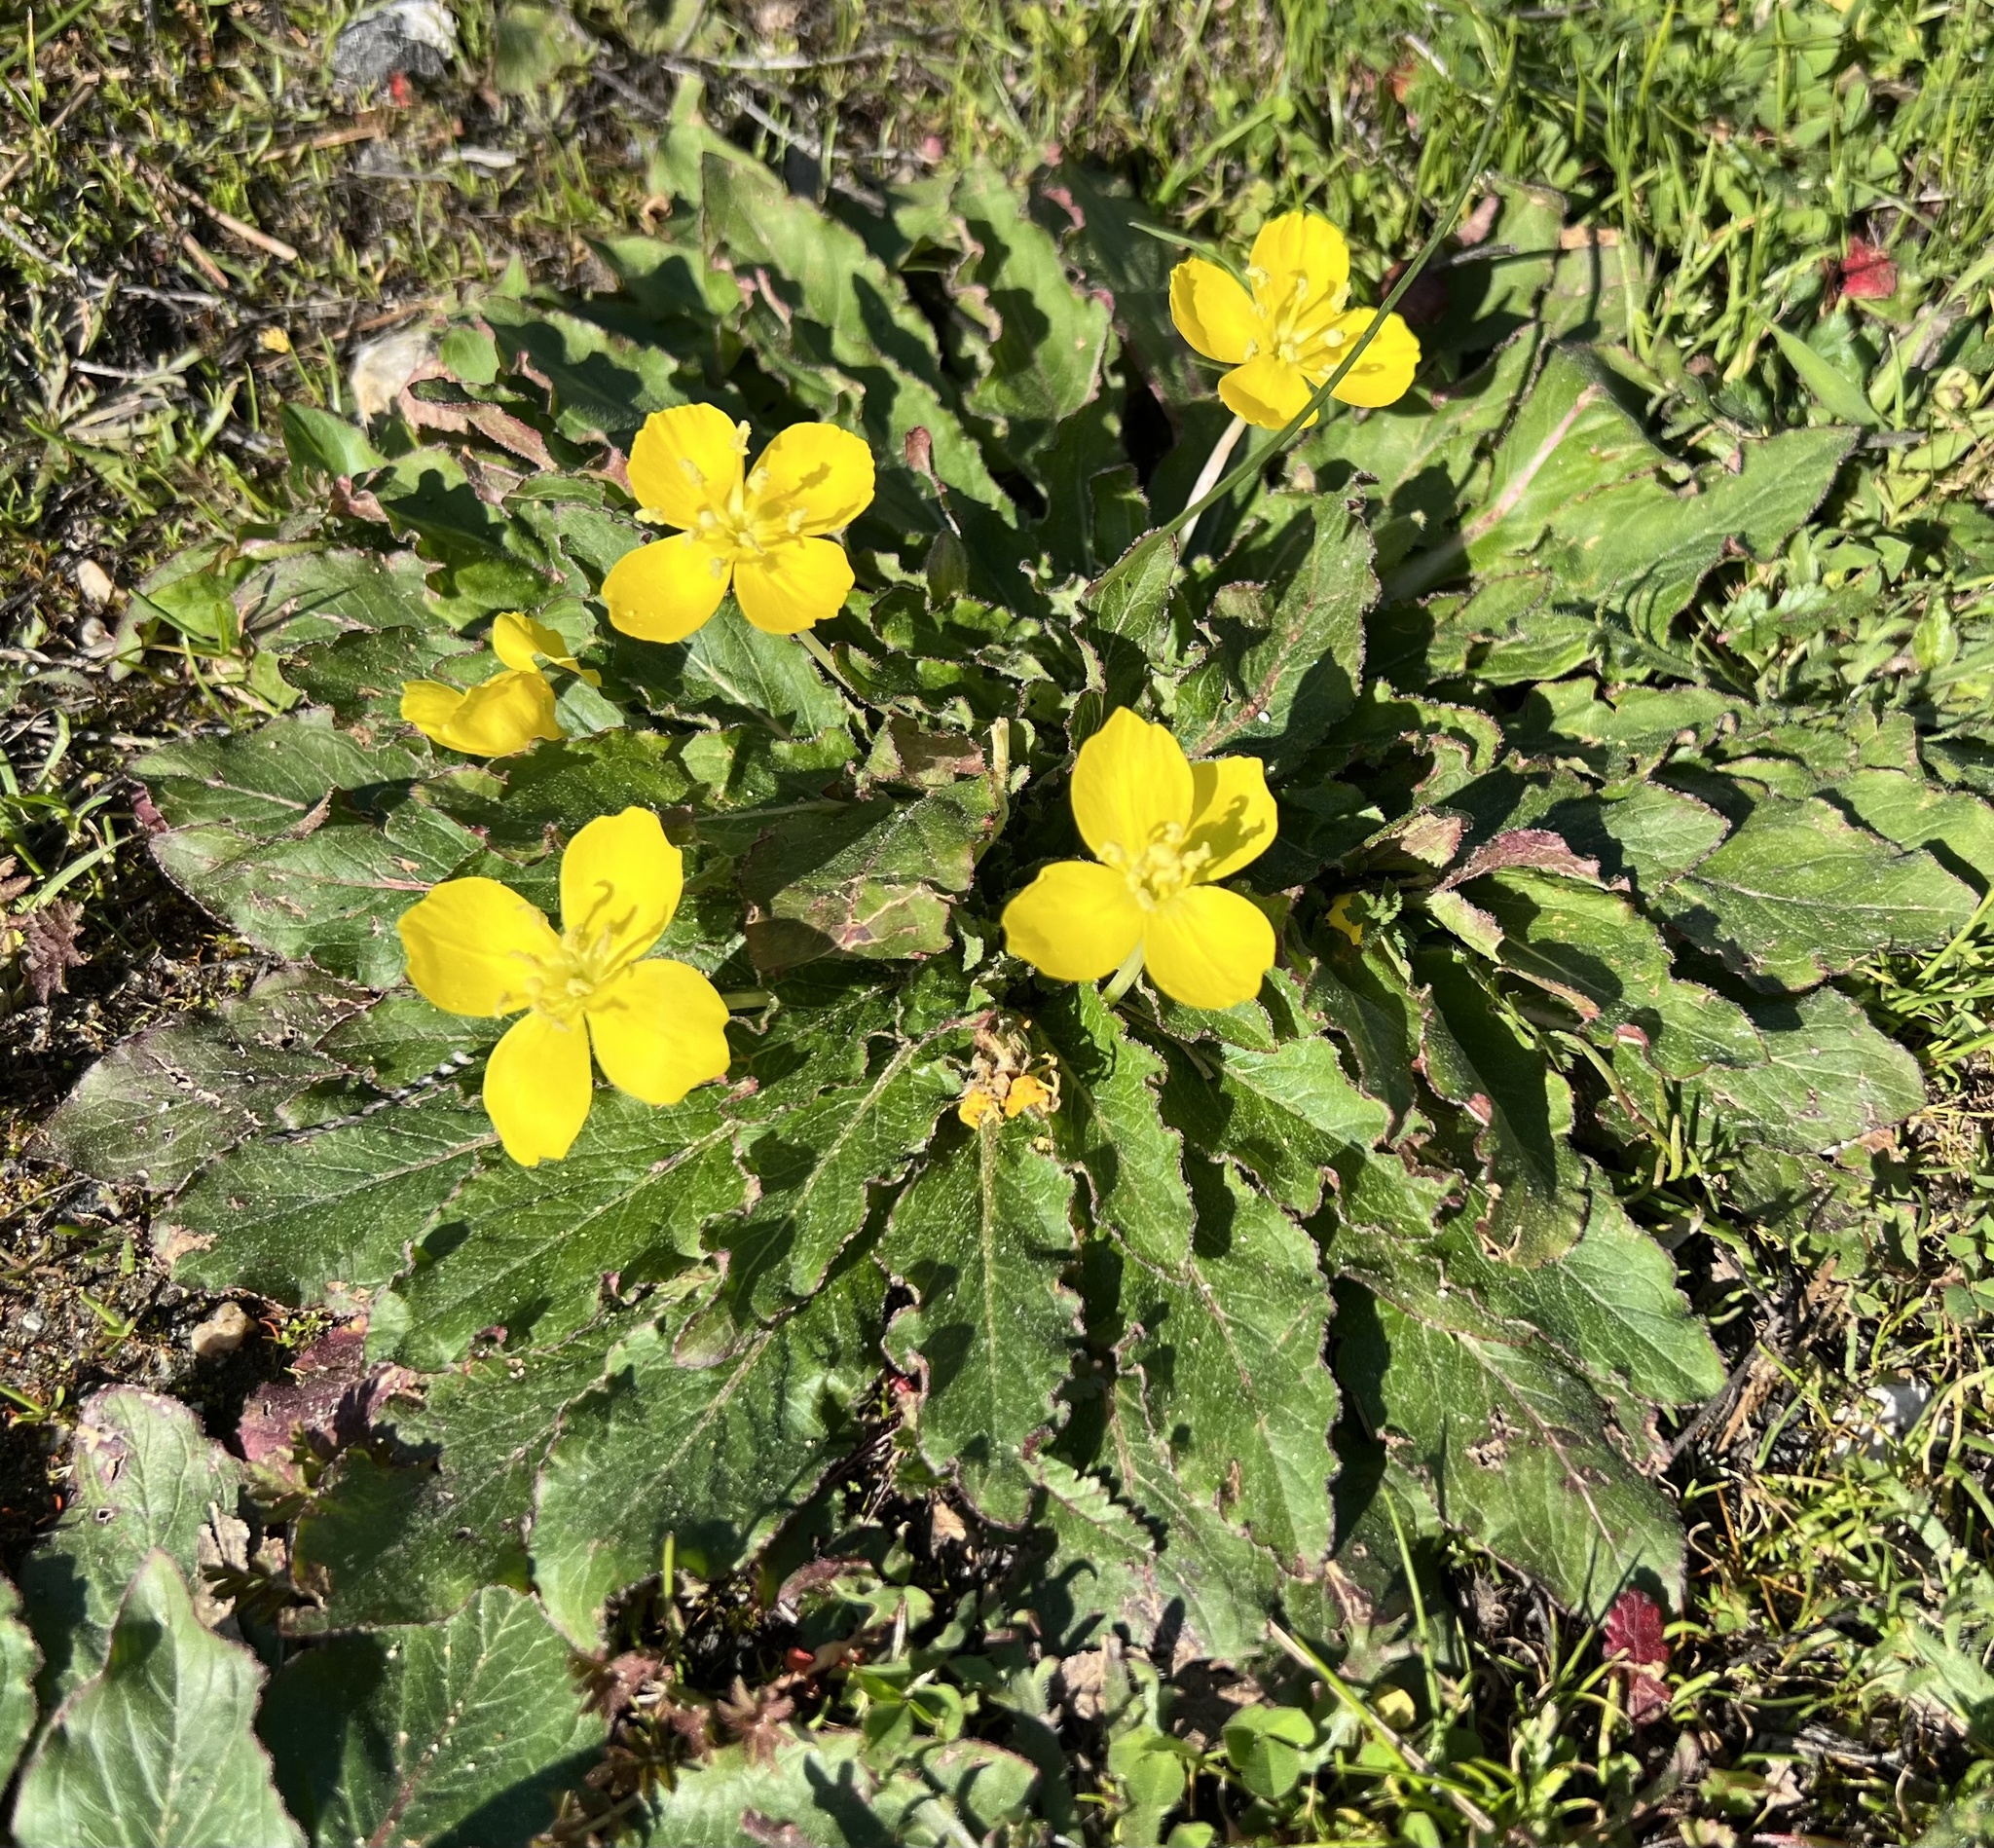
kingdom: Plantae
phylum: Tracheophyta
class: Magnoliopsida
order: Myrtales
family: Onagraceae
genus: Taraxia
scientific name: Taraxia ovata
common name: Goldeneggs
